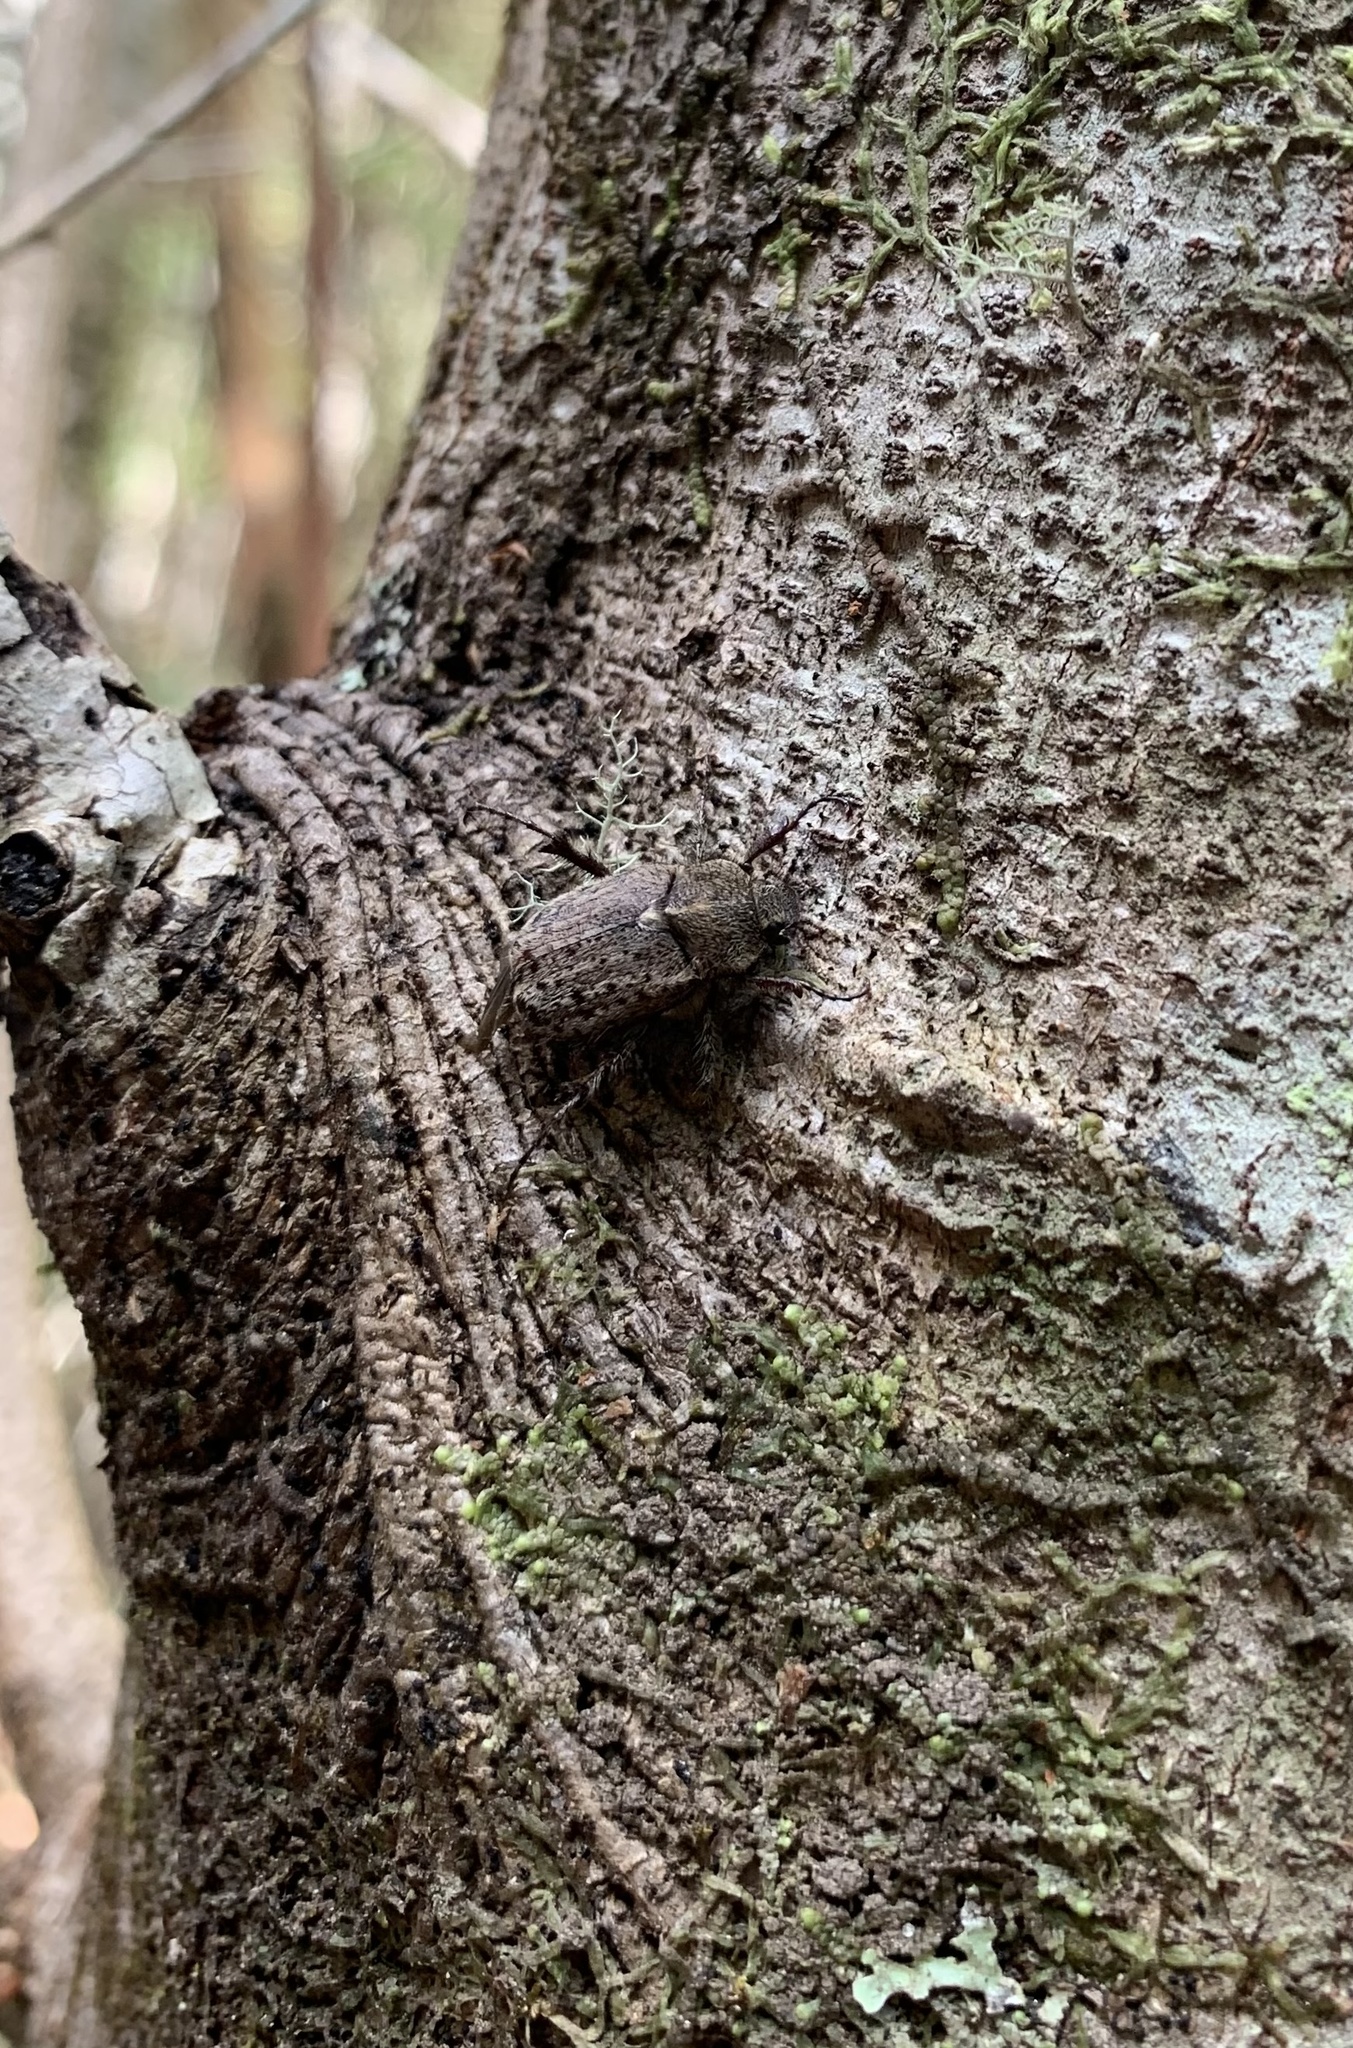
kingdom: Animalia
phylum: Arthropoda
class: Insecta
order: Coleoptera
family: Scarabaeidae
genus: Diaphylla
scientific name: Diaphylla granulata
